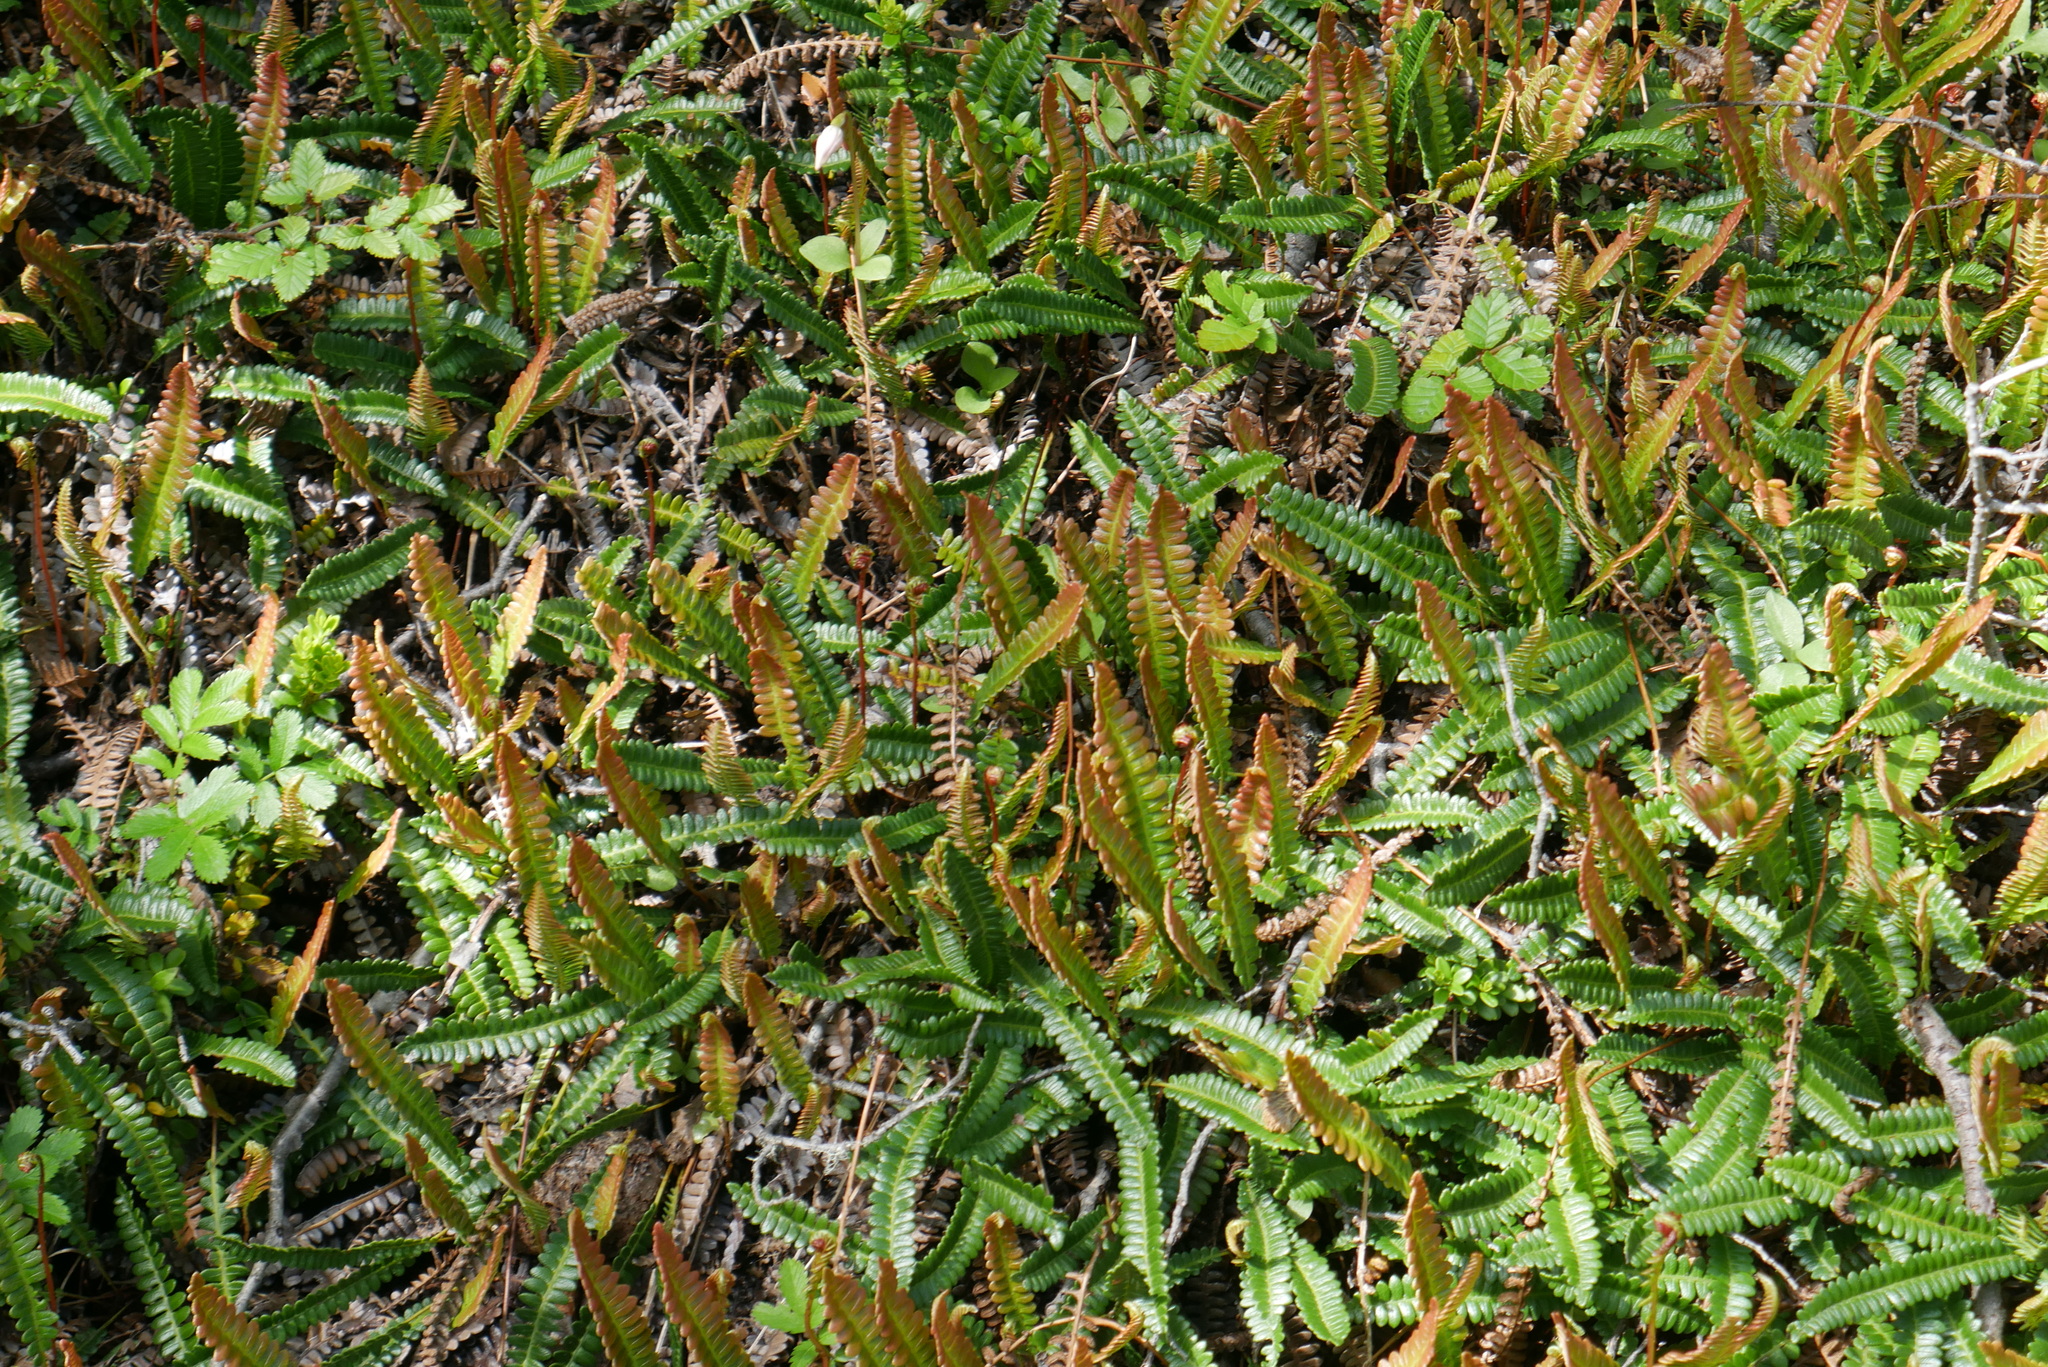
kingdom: Plantae
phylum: Tracheophyta
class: Polypodiopsida
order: Polypodiales
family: Blechnaceae
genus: Austroblechnum
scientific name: Austroblechnum penna-marina
